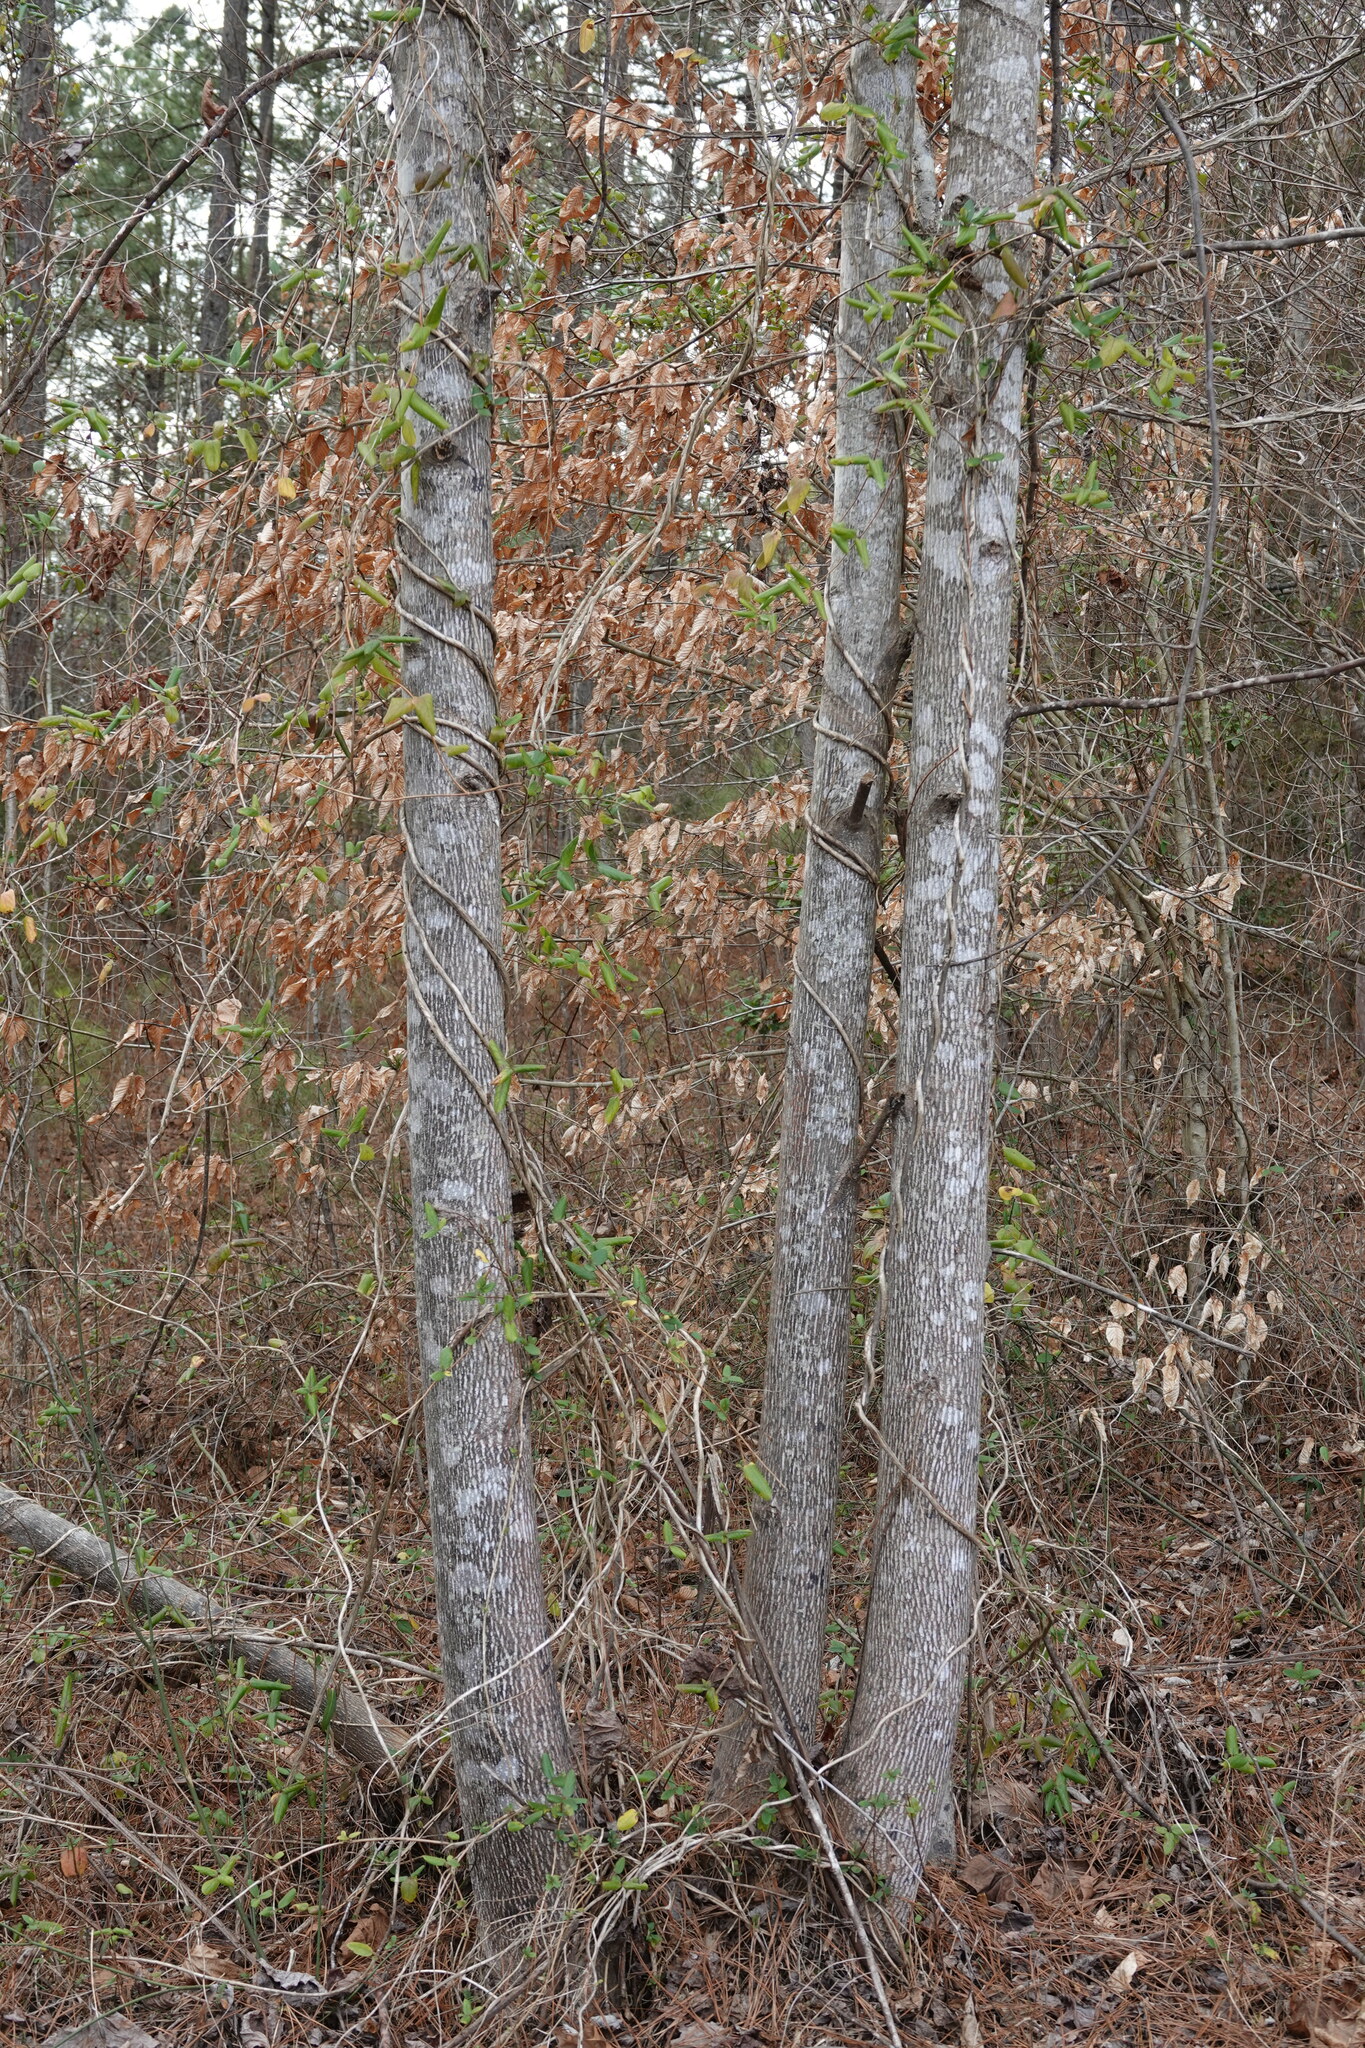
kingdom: Plantae
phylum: Tracheophyta
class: Magnoliopsida
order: Dipsacales
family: Caprifoliaceae
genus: Lonicera
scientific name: Lonicera japonica
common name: Japanese honeysuckle
